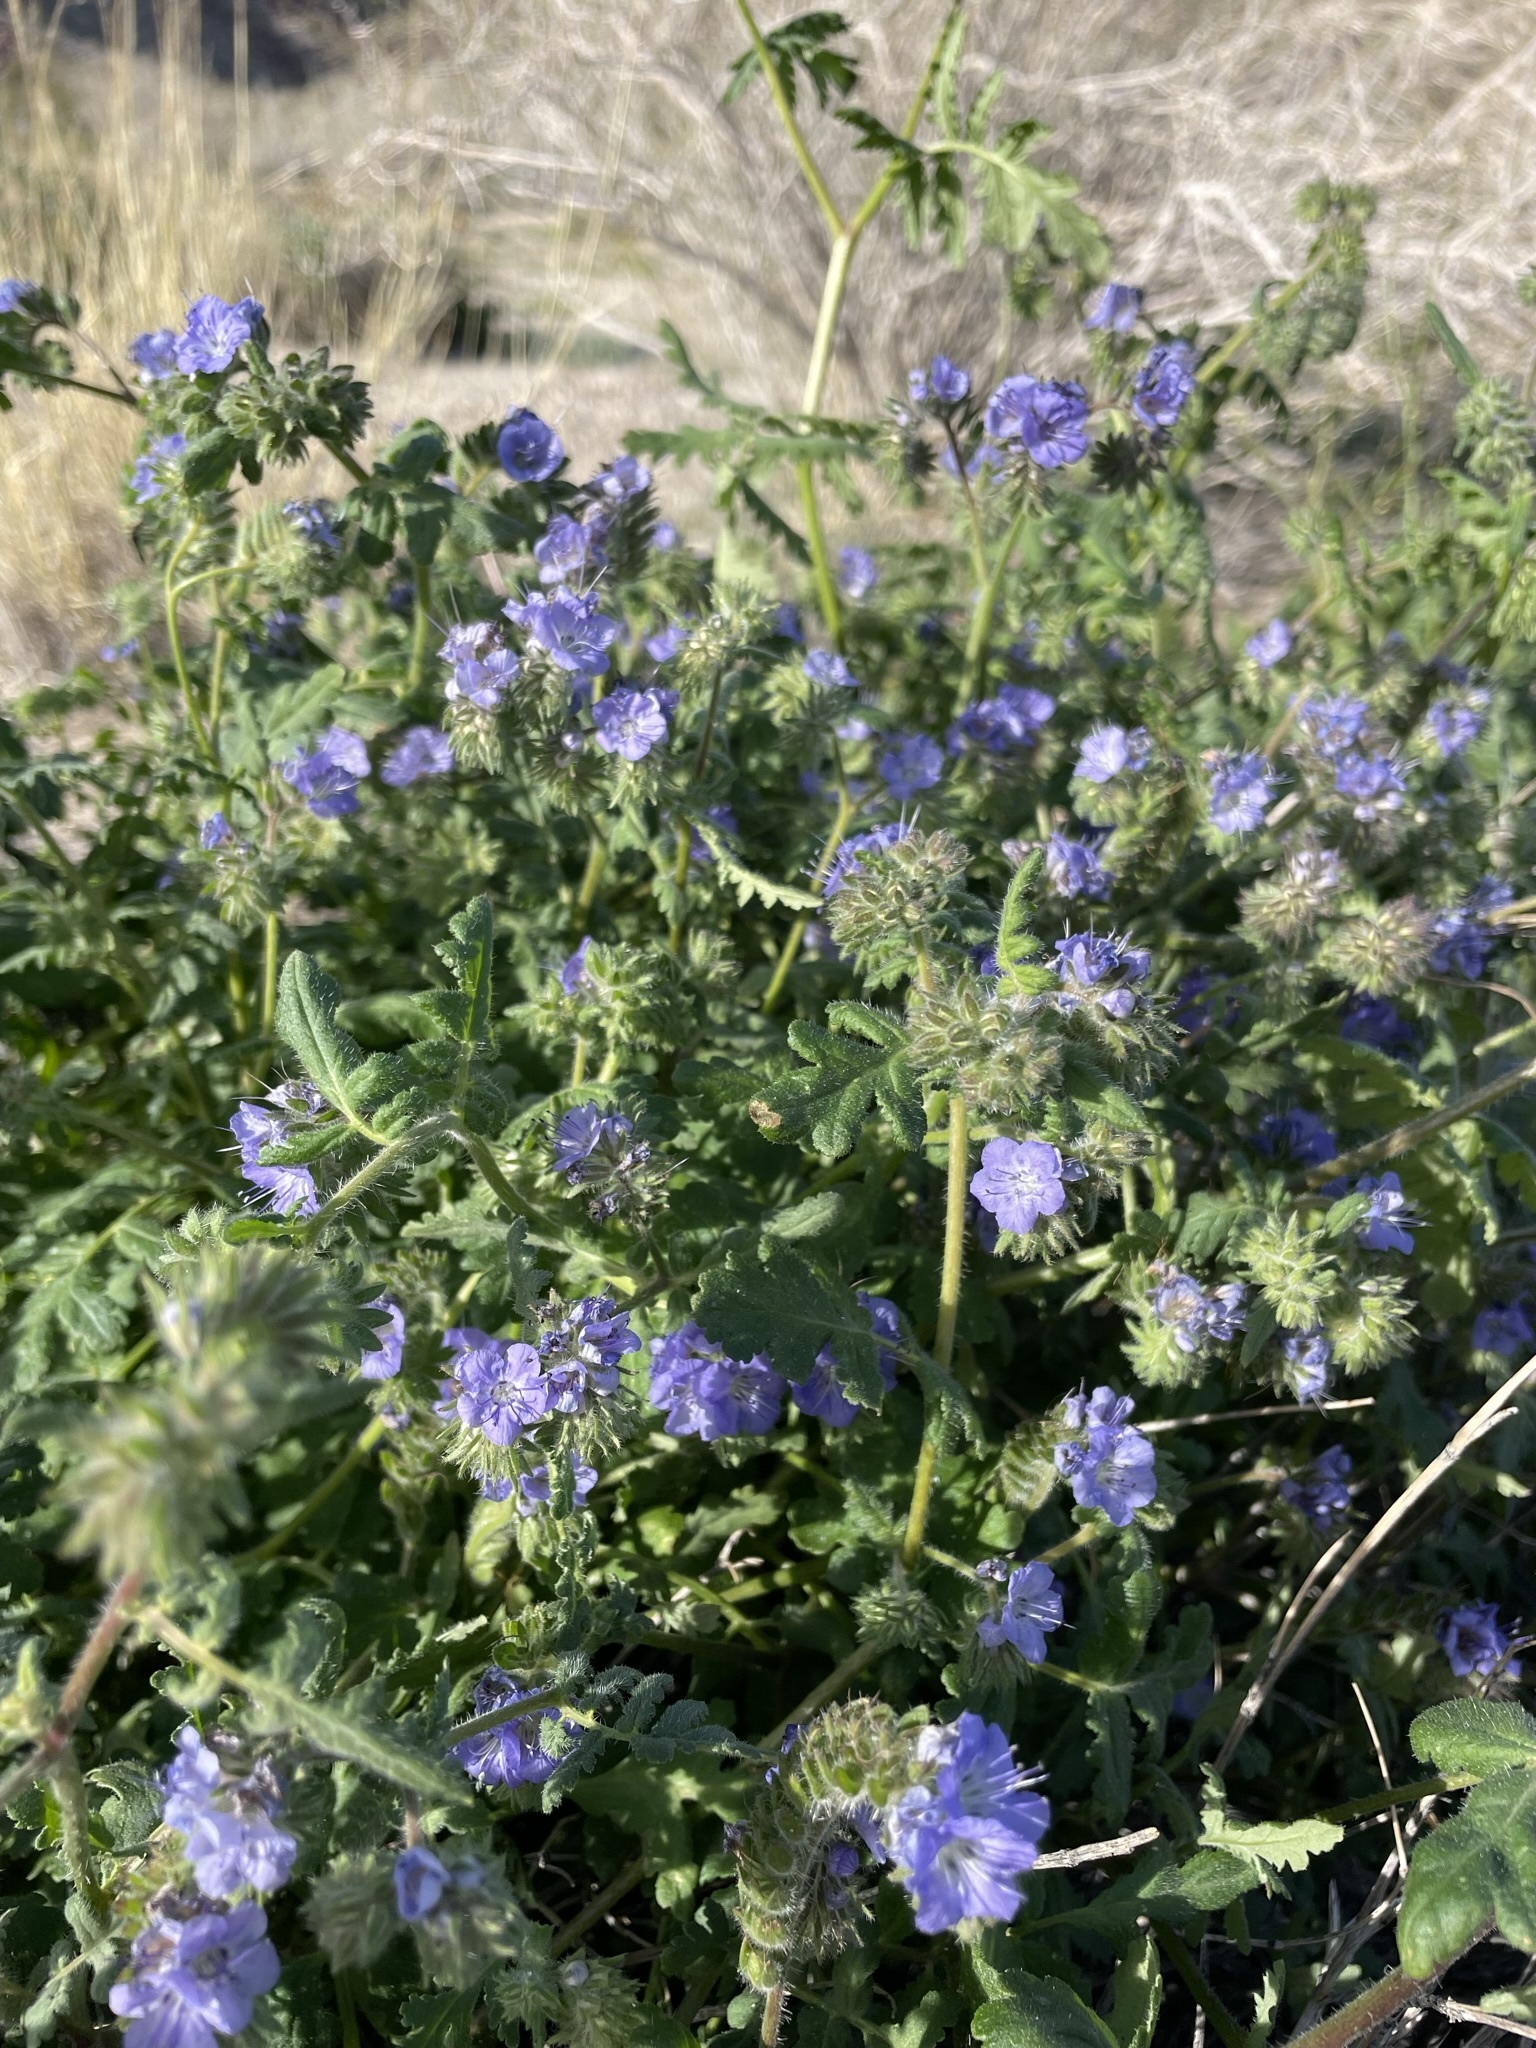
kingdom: Plantae
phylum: Tracheophyta
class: Magnoliopsida
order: Boraginales
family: Hydrophyllaceae
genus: Phacelia
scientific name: Phacelia distans
